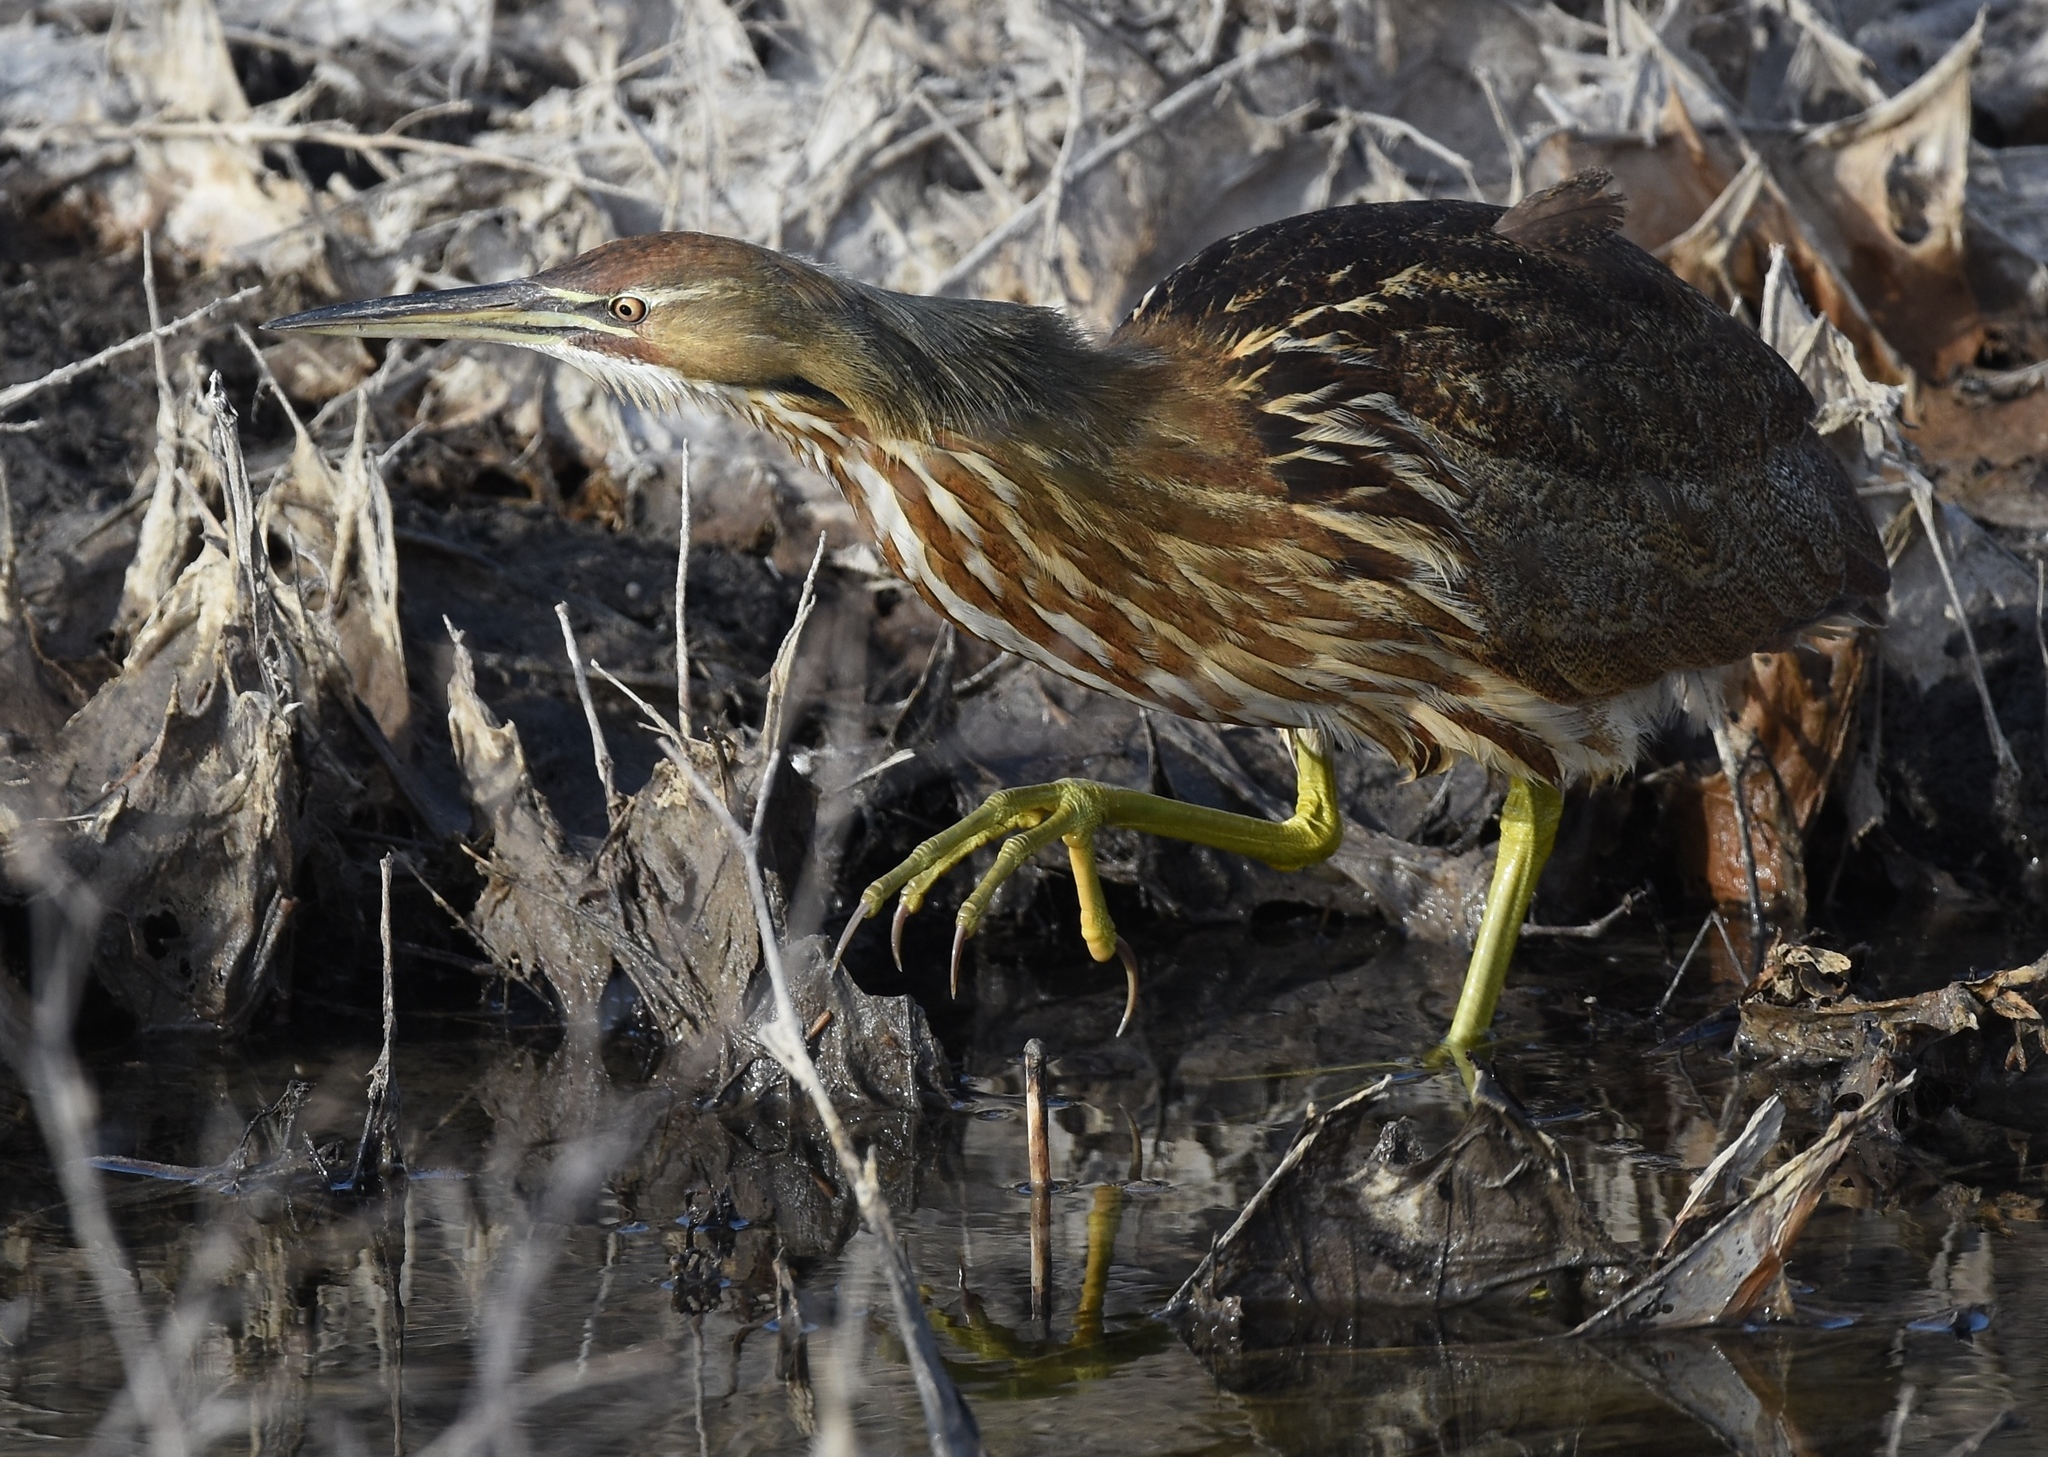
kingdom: Animalia
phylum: Chordata
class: Aves
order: Pelecaniformes
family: Ardeidae
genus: Botaurus
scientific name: Botaurus lentiginosus
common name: American bittern
